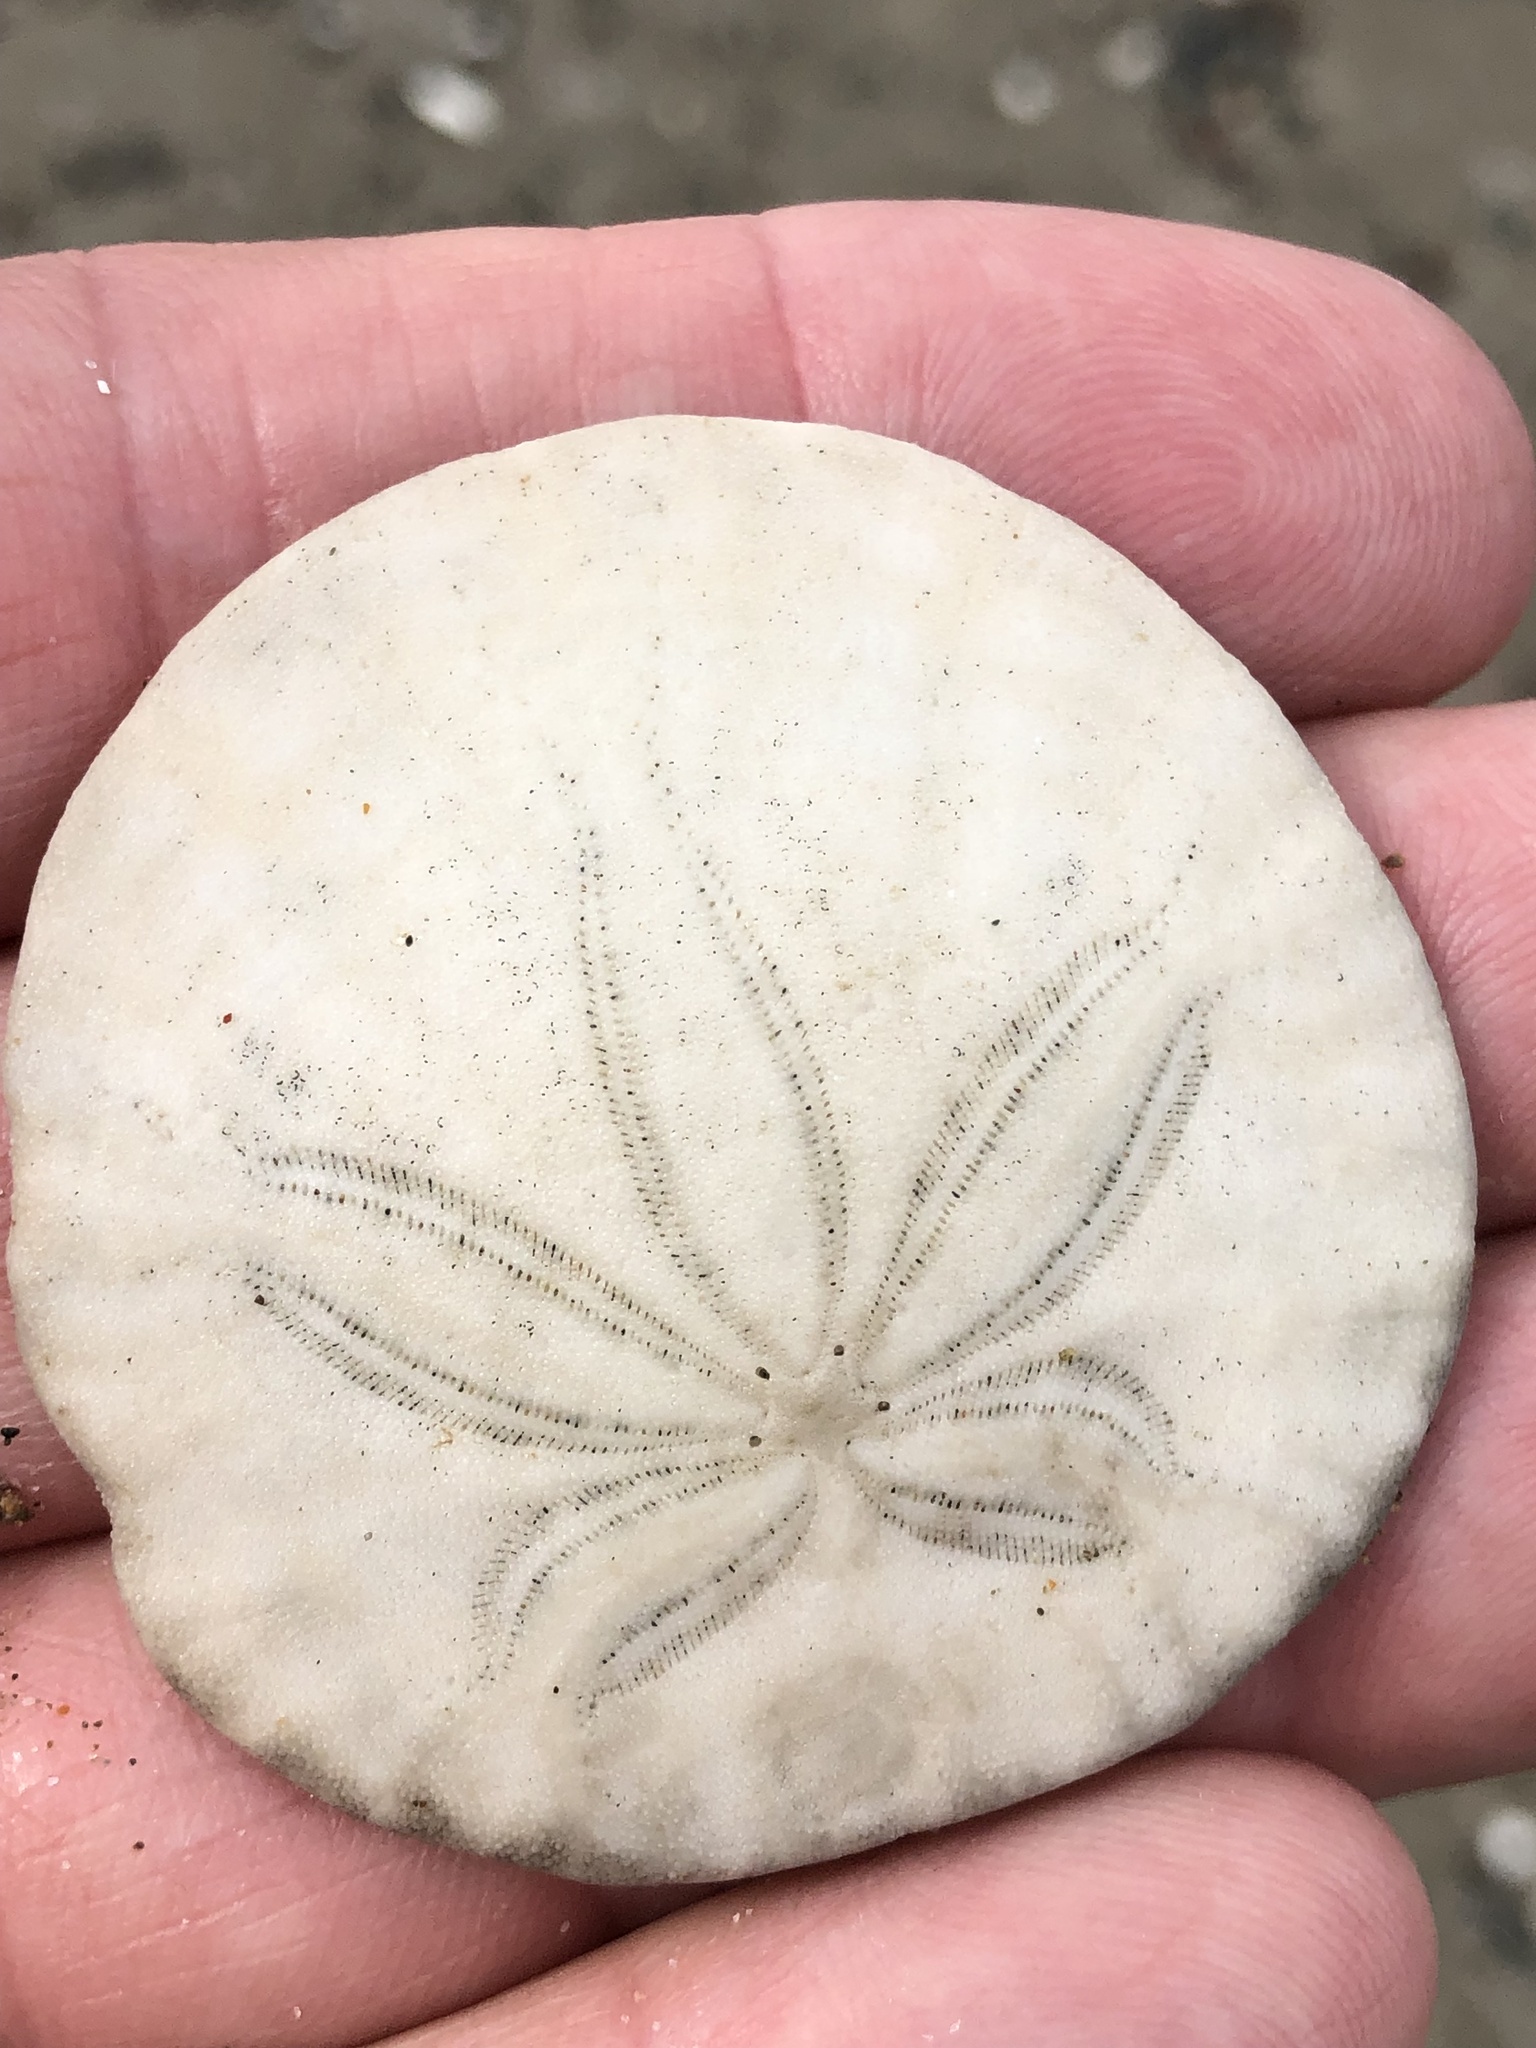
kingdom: Animalia
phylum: Echinodermata
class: Echinoidea
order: Echinolampadacea
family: Dendrasteridae
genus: Dendraster
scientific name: Dendraster excentricus
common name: Eccentric sand dollar sea urchin
